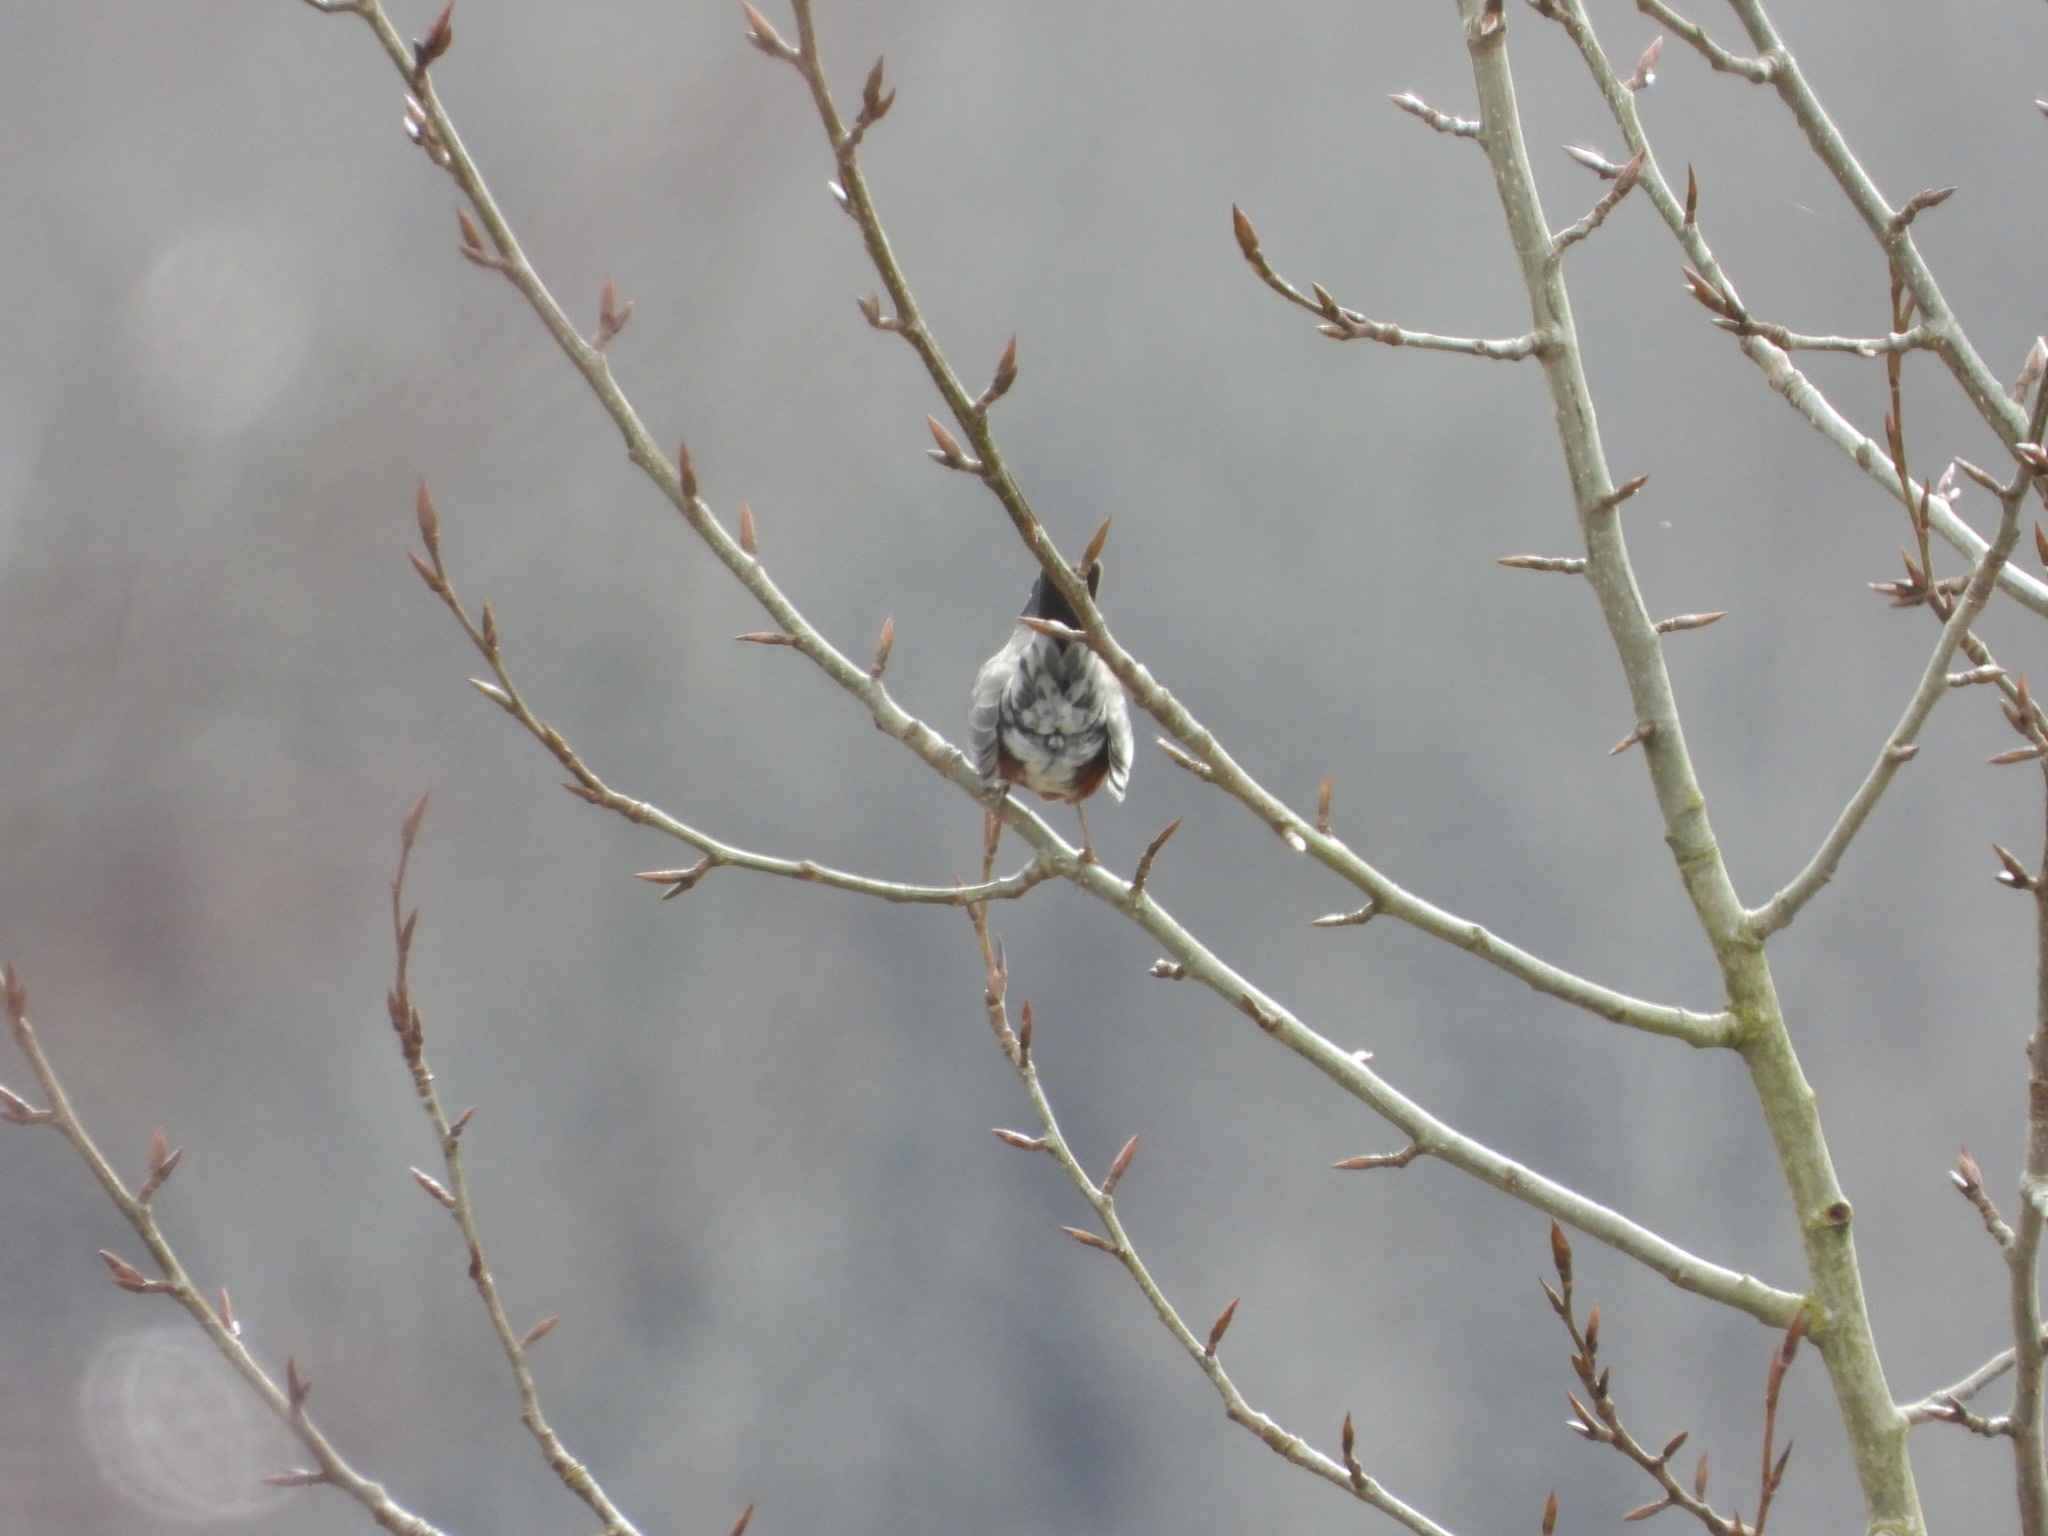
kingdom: Animalia
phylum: Chordata
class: Aves
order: Passeriformes
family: Turdidae
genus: Turdus
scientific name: Turdus migratorius
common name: American robin
